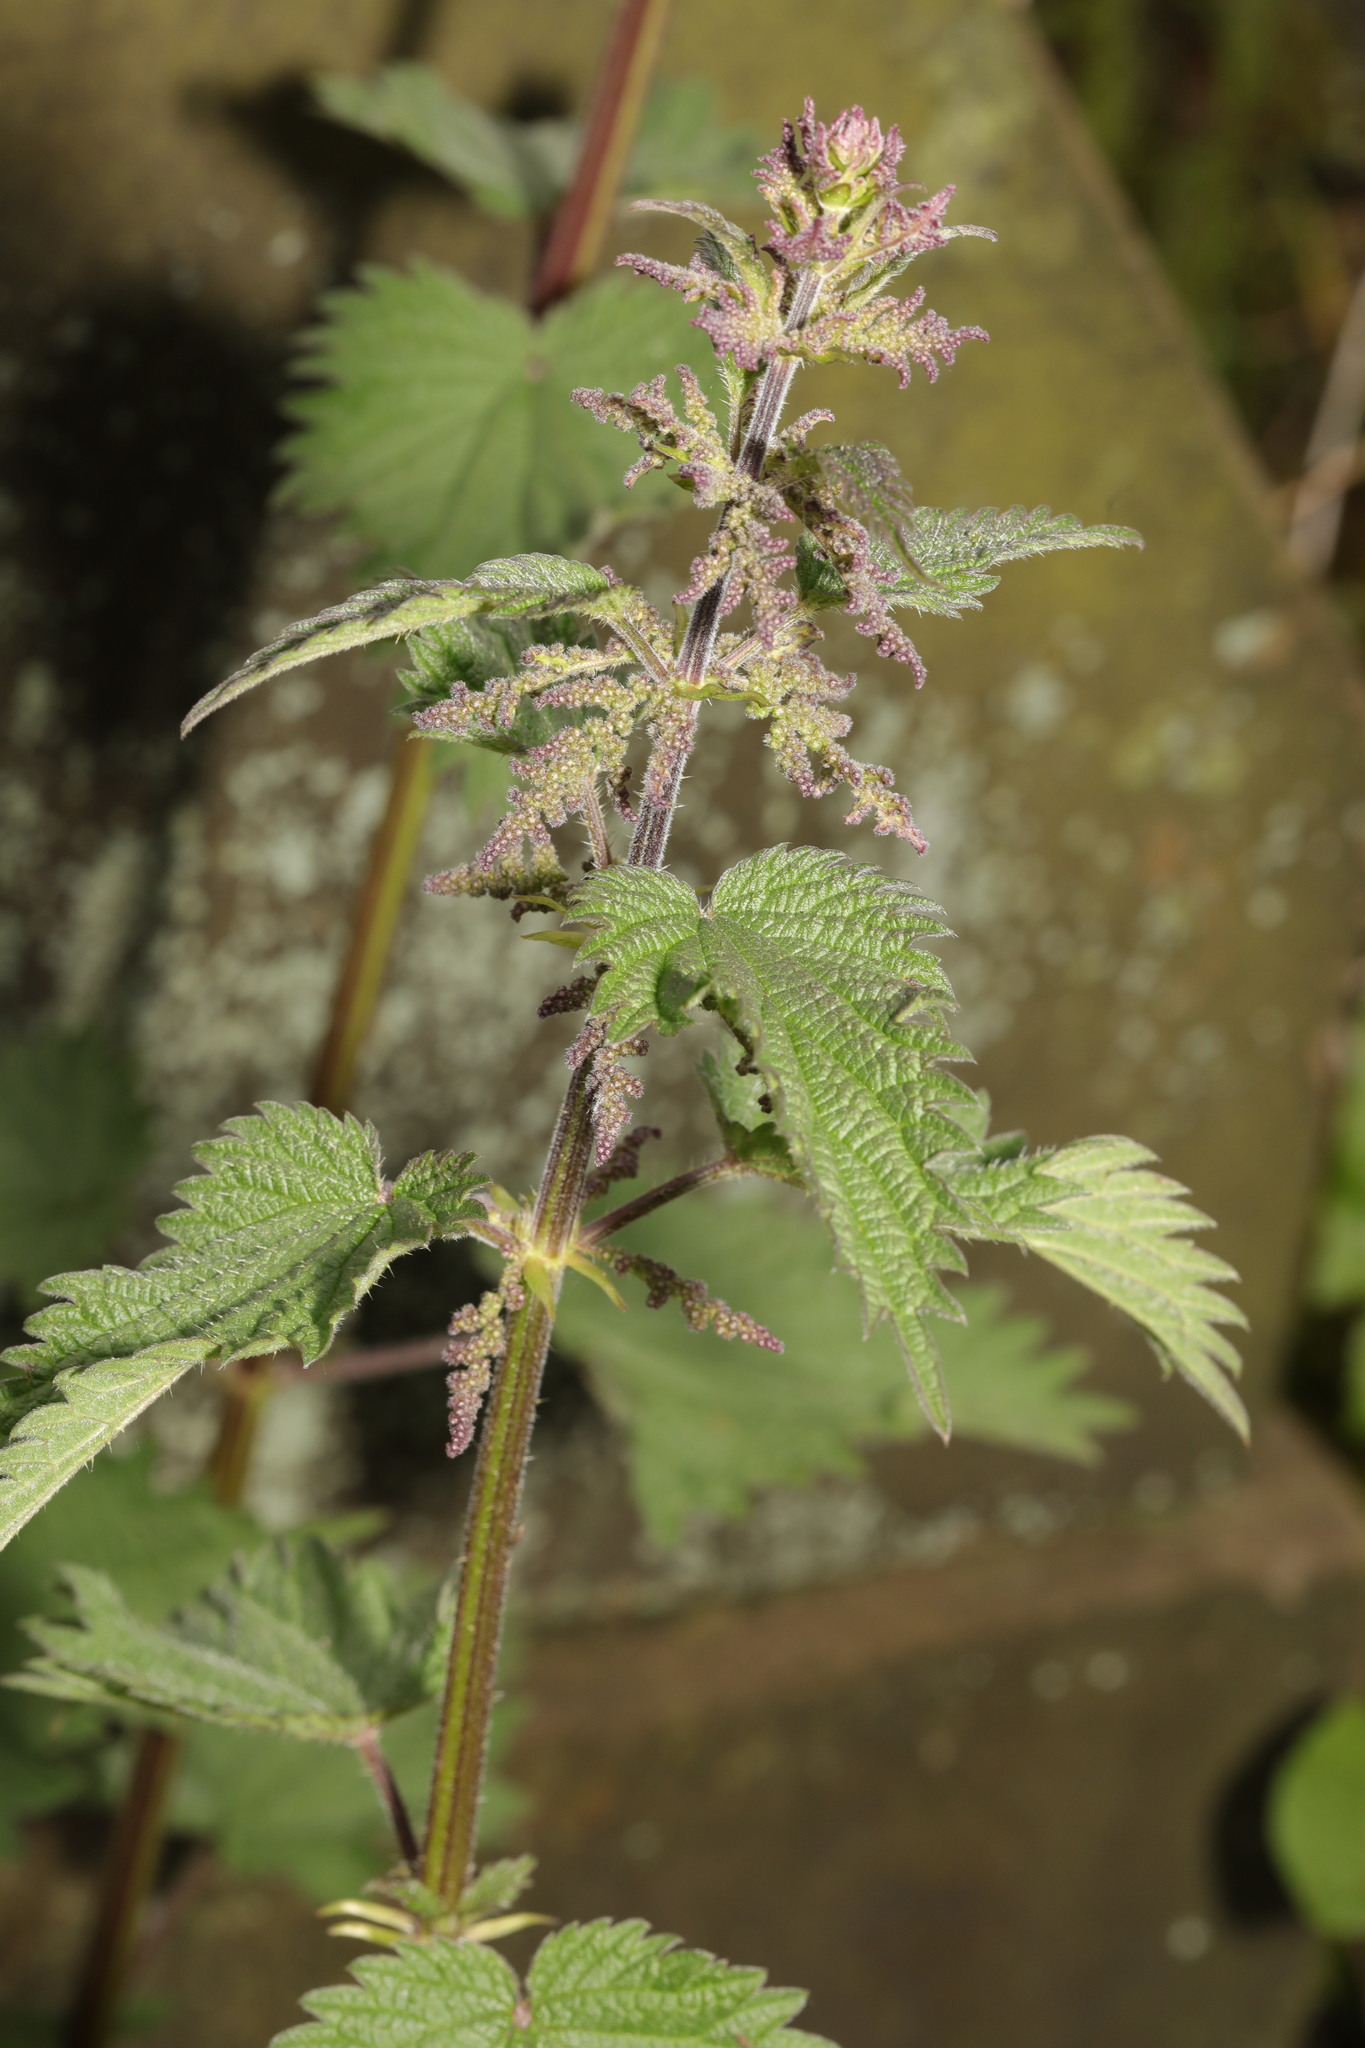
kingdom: Plantae
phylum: Tracheophyta
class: Magnoliopsida
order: Rosales
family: Urticaceae
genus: Urtica
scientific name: Urtica dioica
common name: Common nettle
